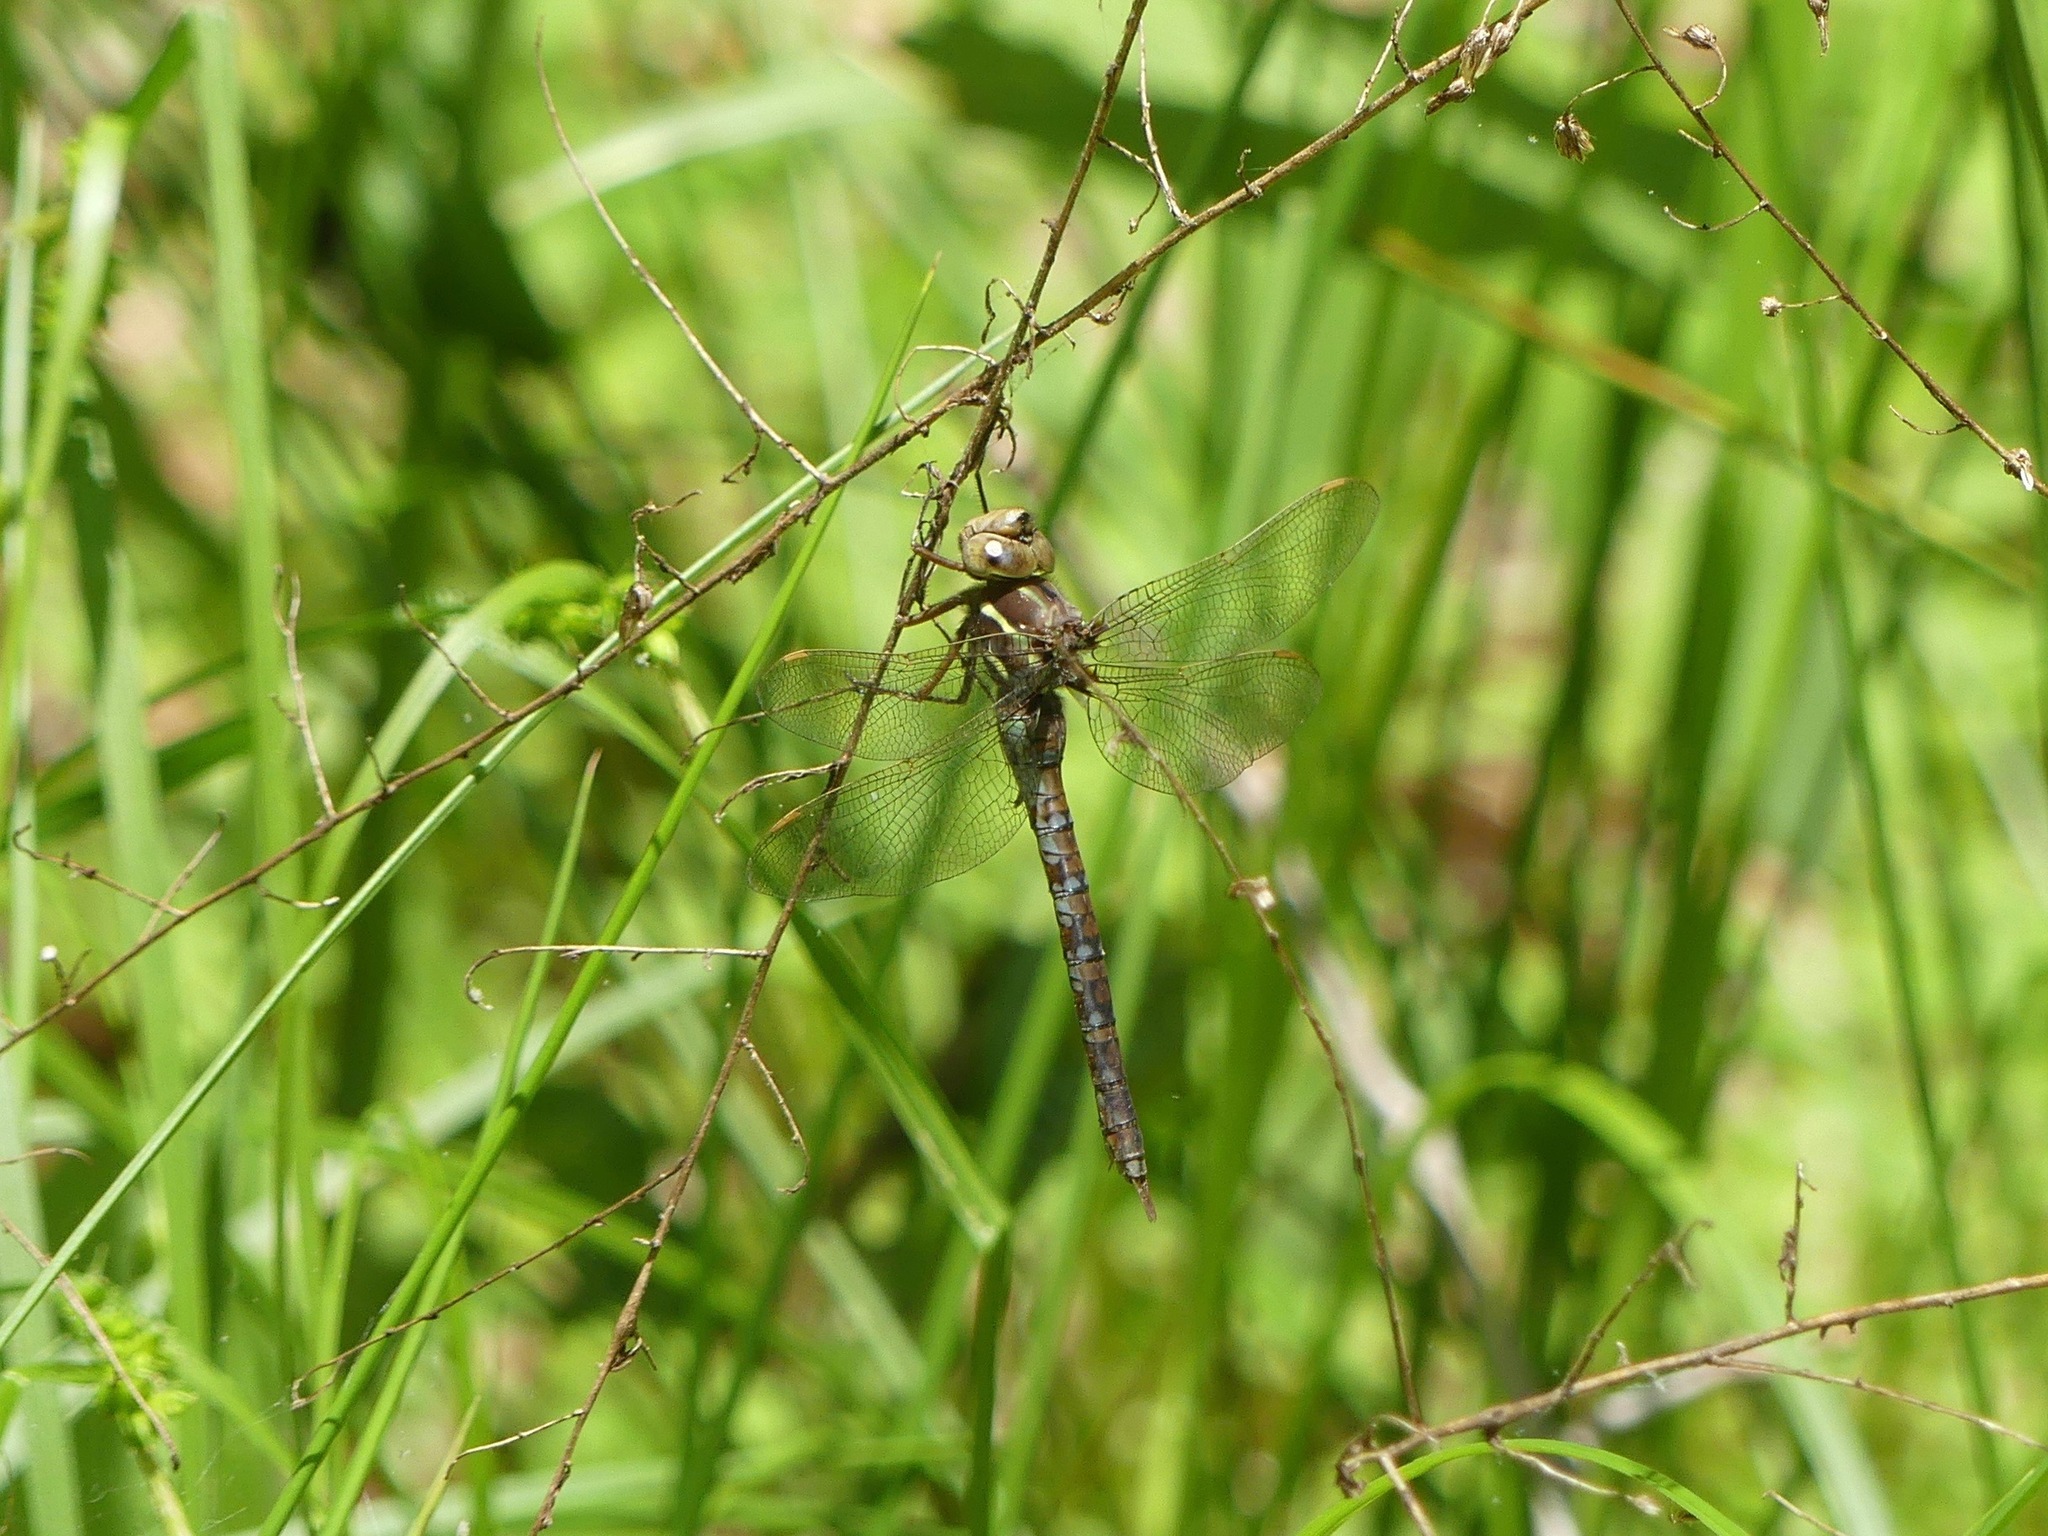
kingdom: Animalia
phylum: Arthropoda
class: Insecta
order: Odonata
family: Aeshnidae
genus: Basiaeschna
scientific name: Basiaeschna janata
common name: Springtime darner
